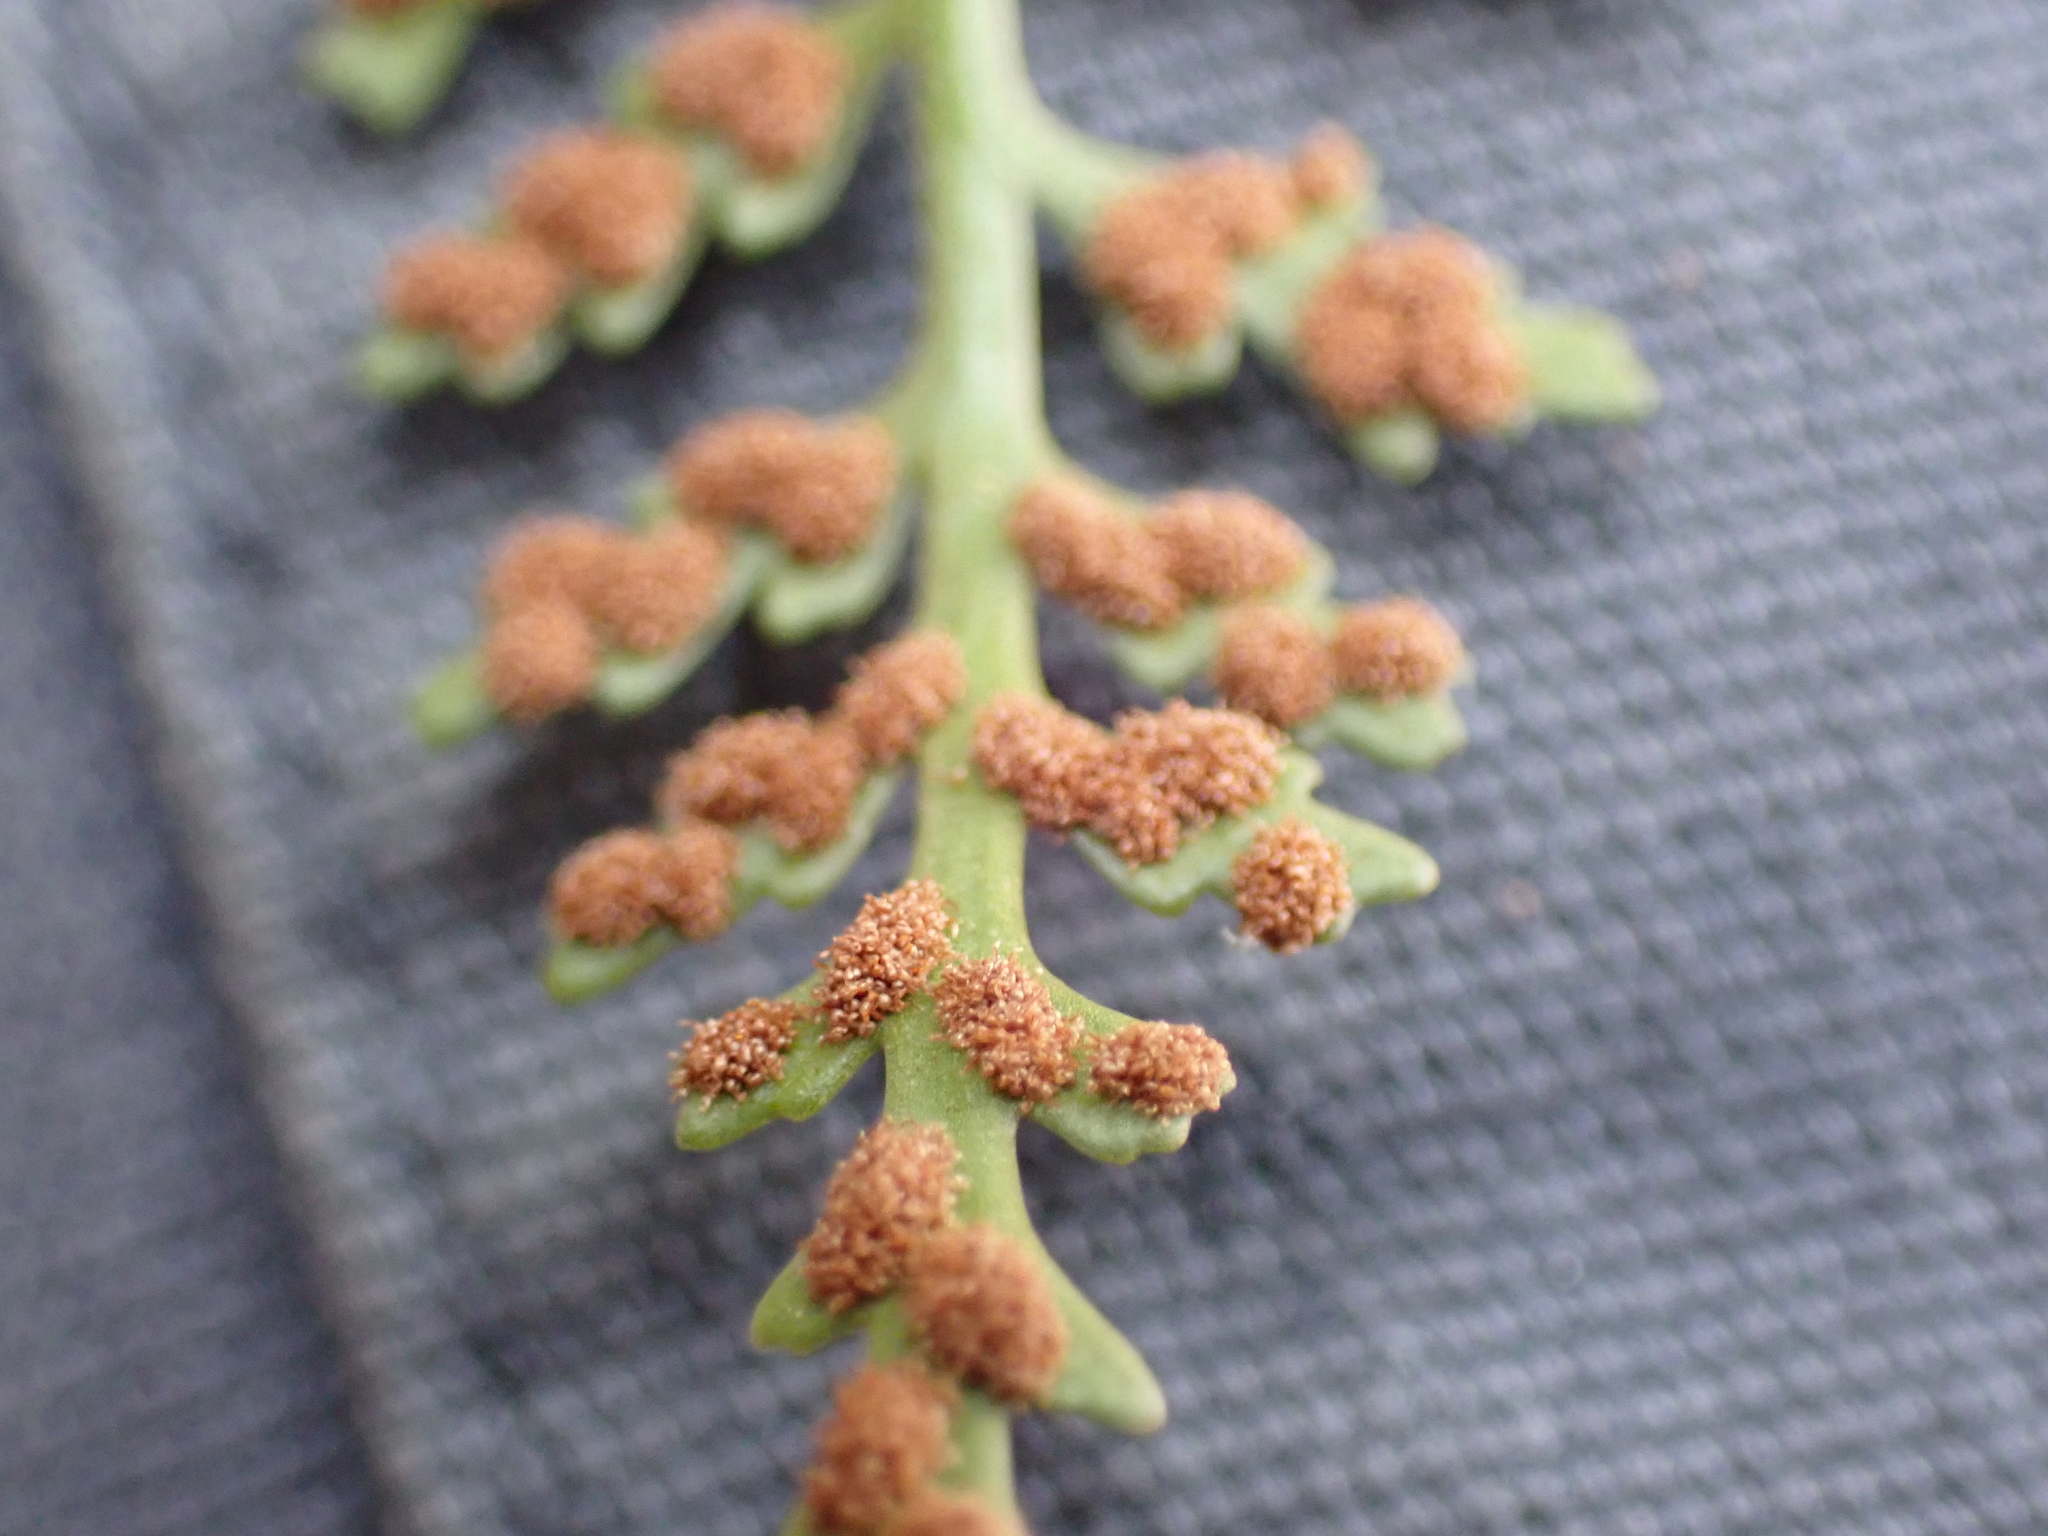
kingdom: Plantae
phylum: Tracheophyta
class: Polypodiopsida
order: Polypodiales
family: Aspleniaceae
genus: Asplenium
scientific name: Asplenium montanum
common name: Mountain spleenwort
